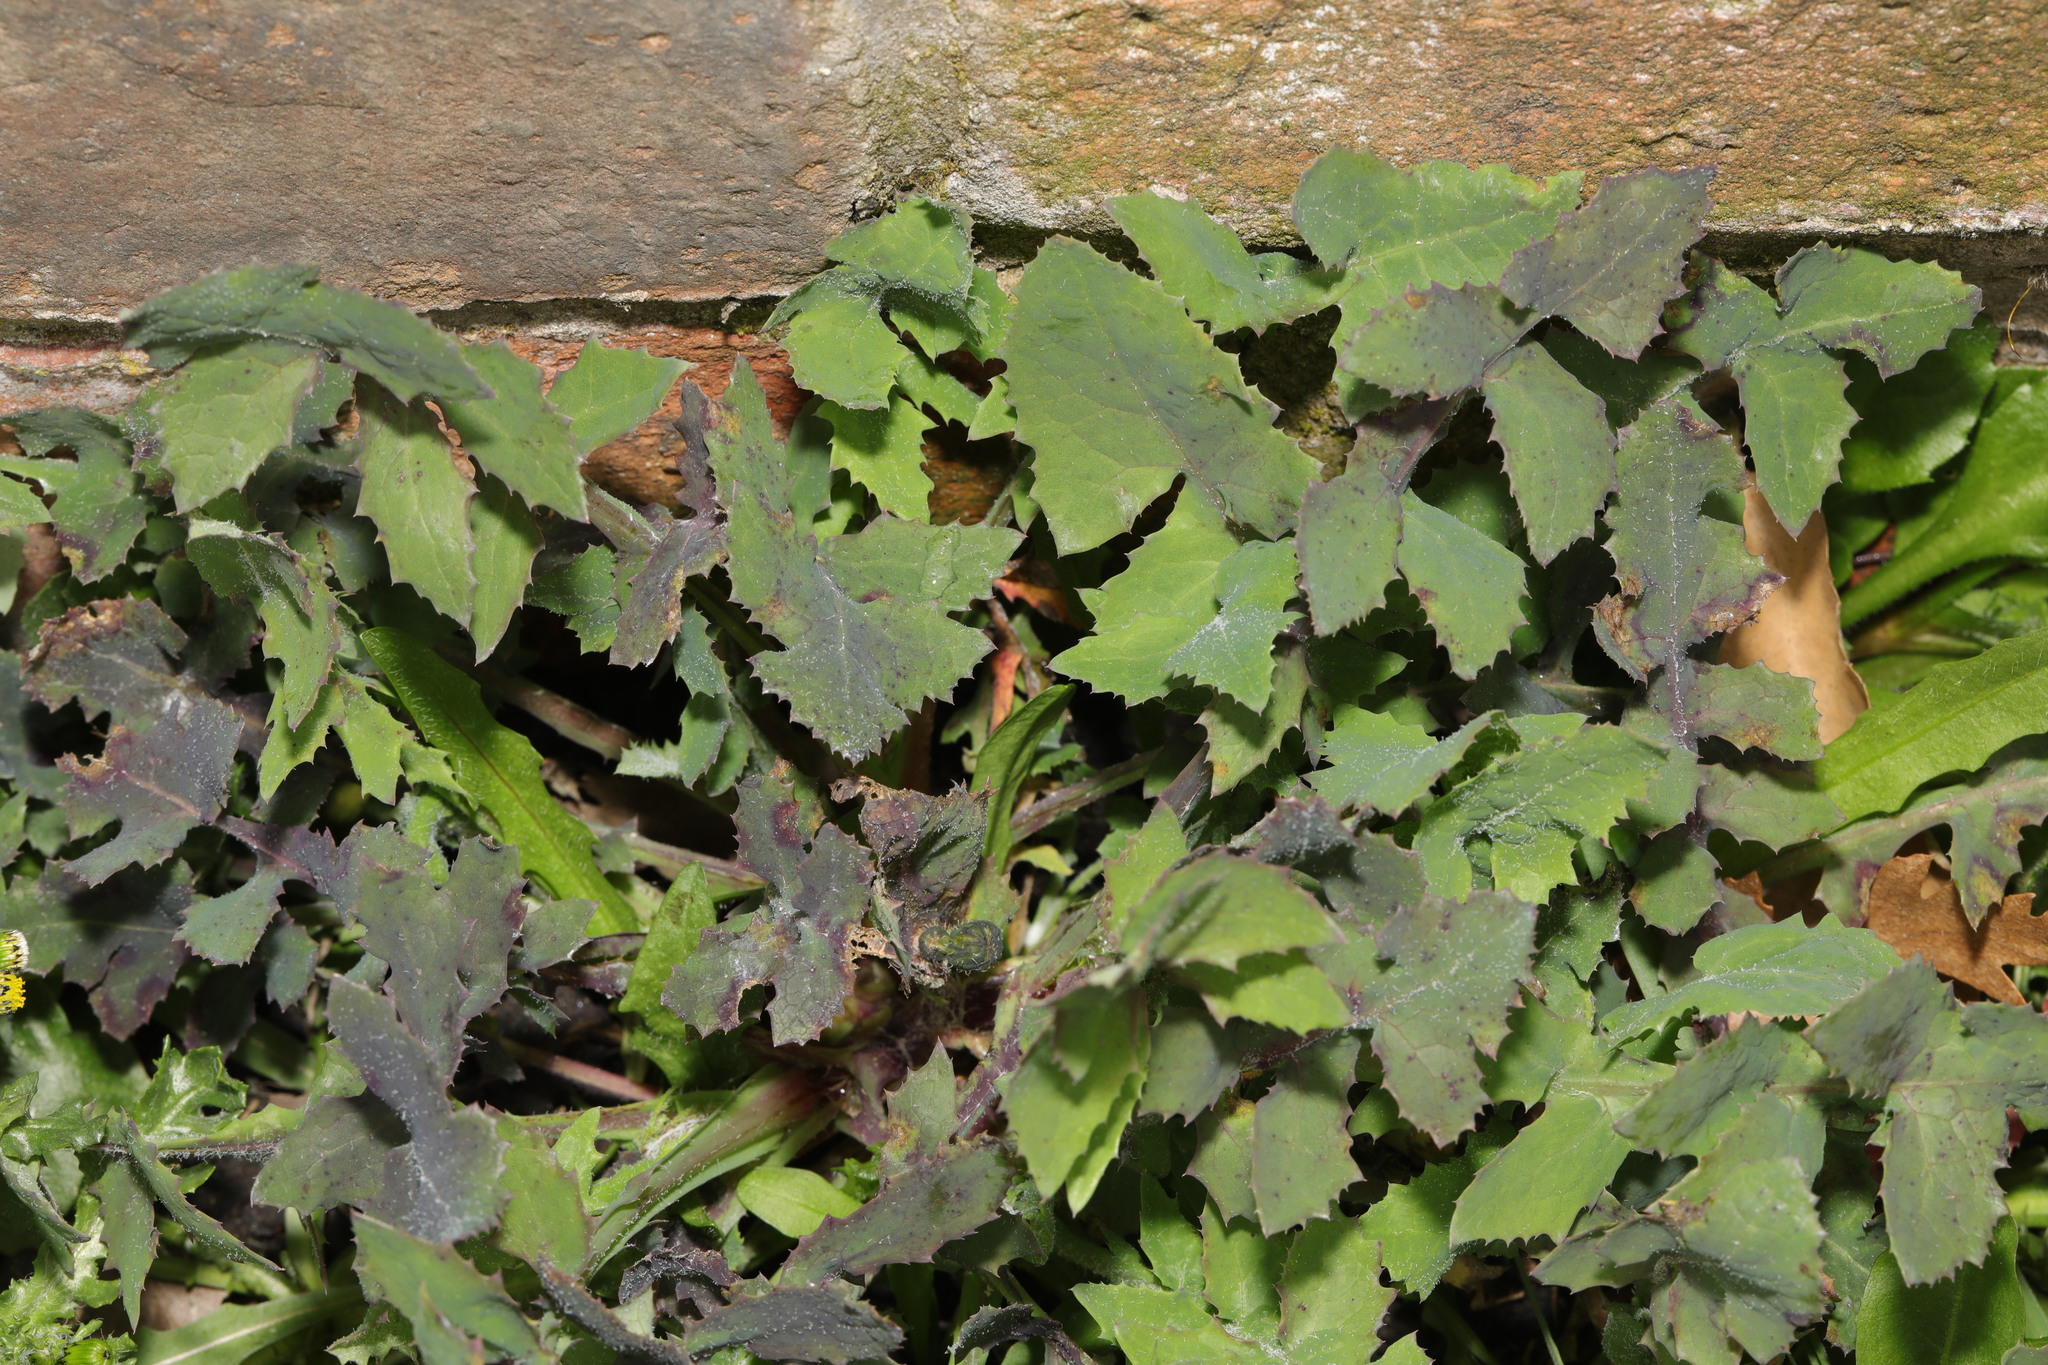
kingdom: Plantae
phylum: Tracheophyta
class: Magnoliopsida
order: Asterales
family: Asteraceae
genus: Sonchus
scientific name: Sonchus oleraceus
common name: Common sowthistle
